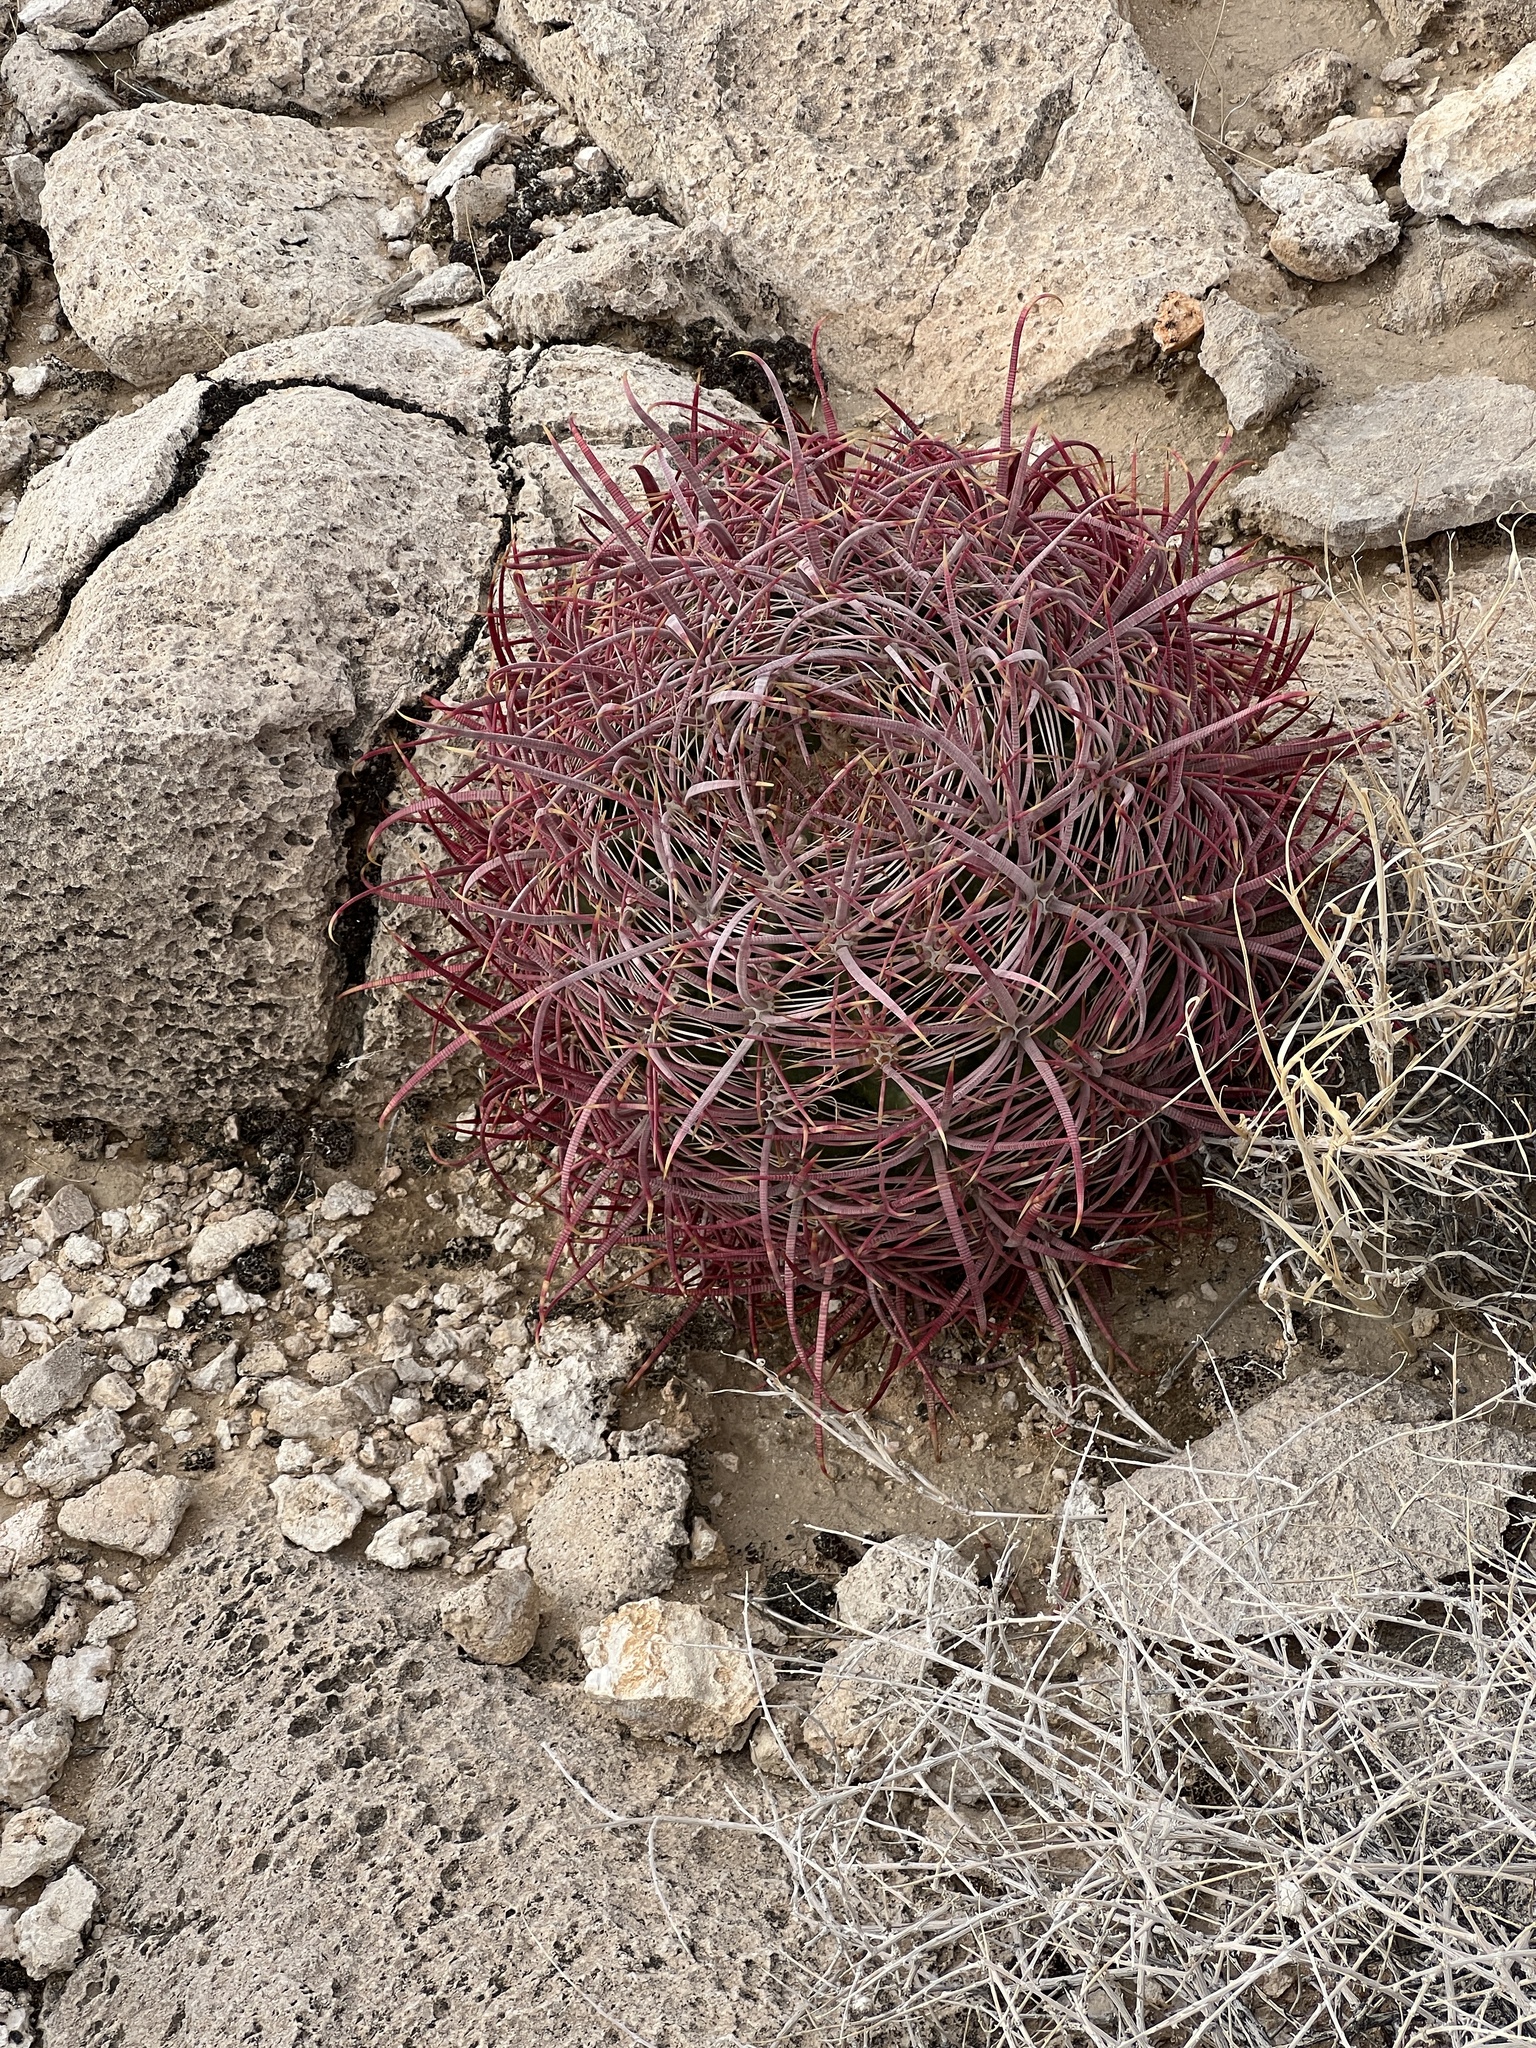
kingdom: Plantae
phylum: Tracheophyta
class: Magnoliopsida
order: Caryophyllales
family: Cactaceae
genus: Ferocactus
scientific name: Ferocactus cylindraceus
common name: California barrel cactus
